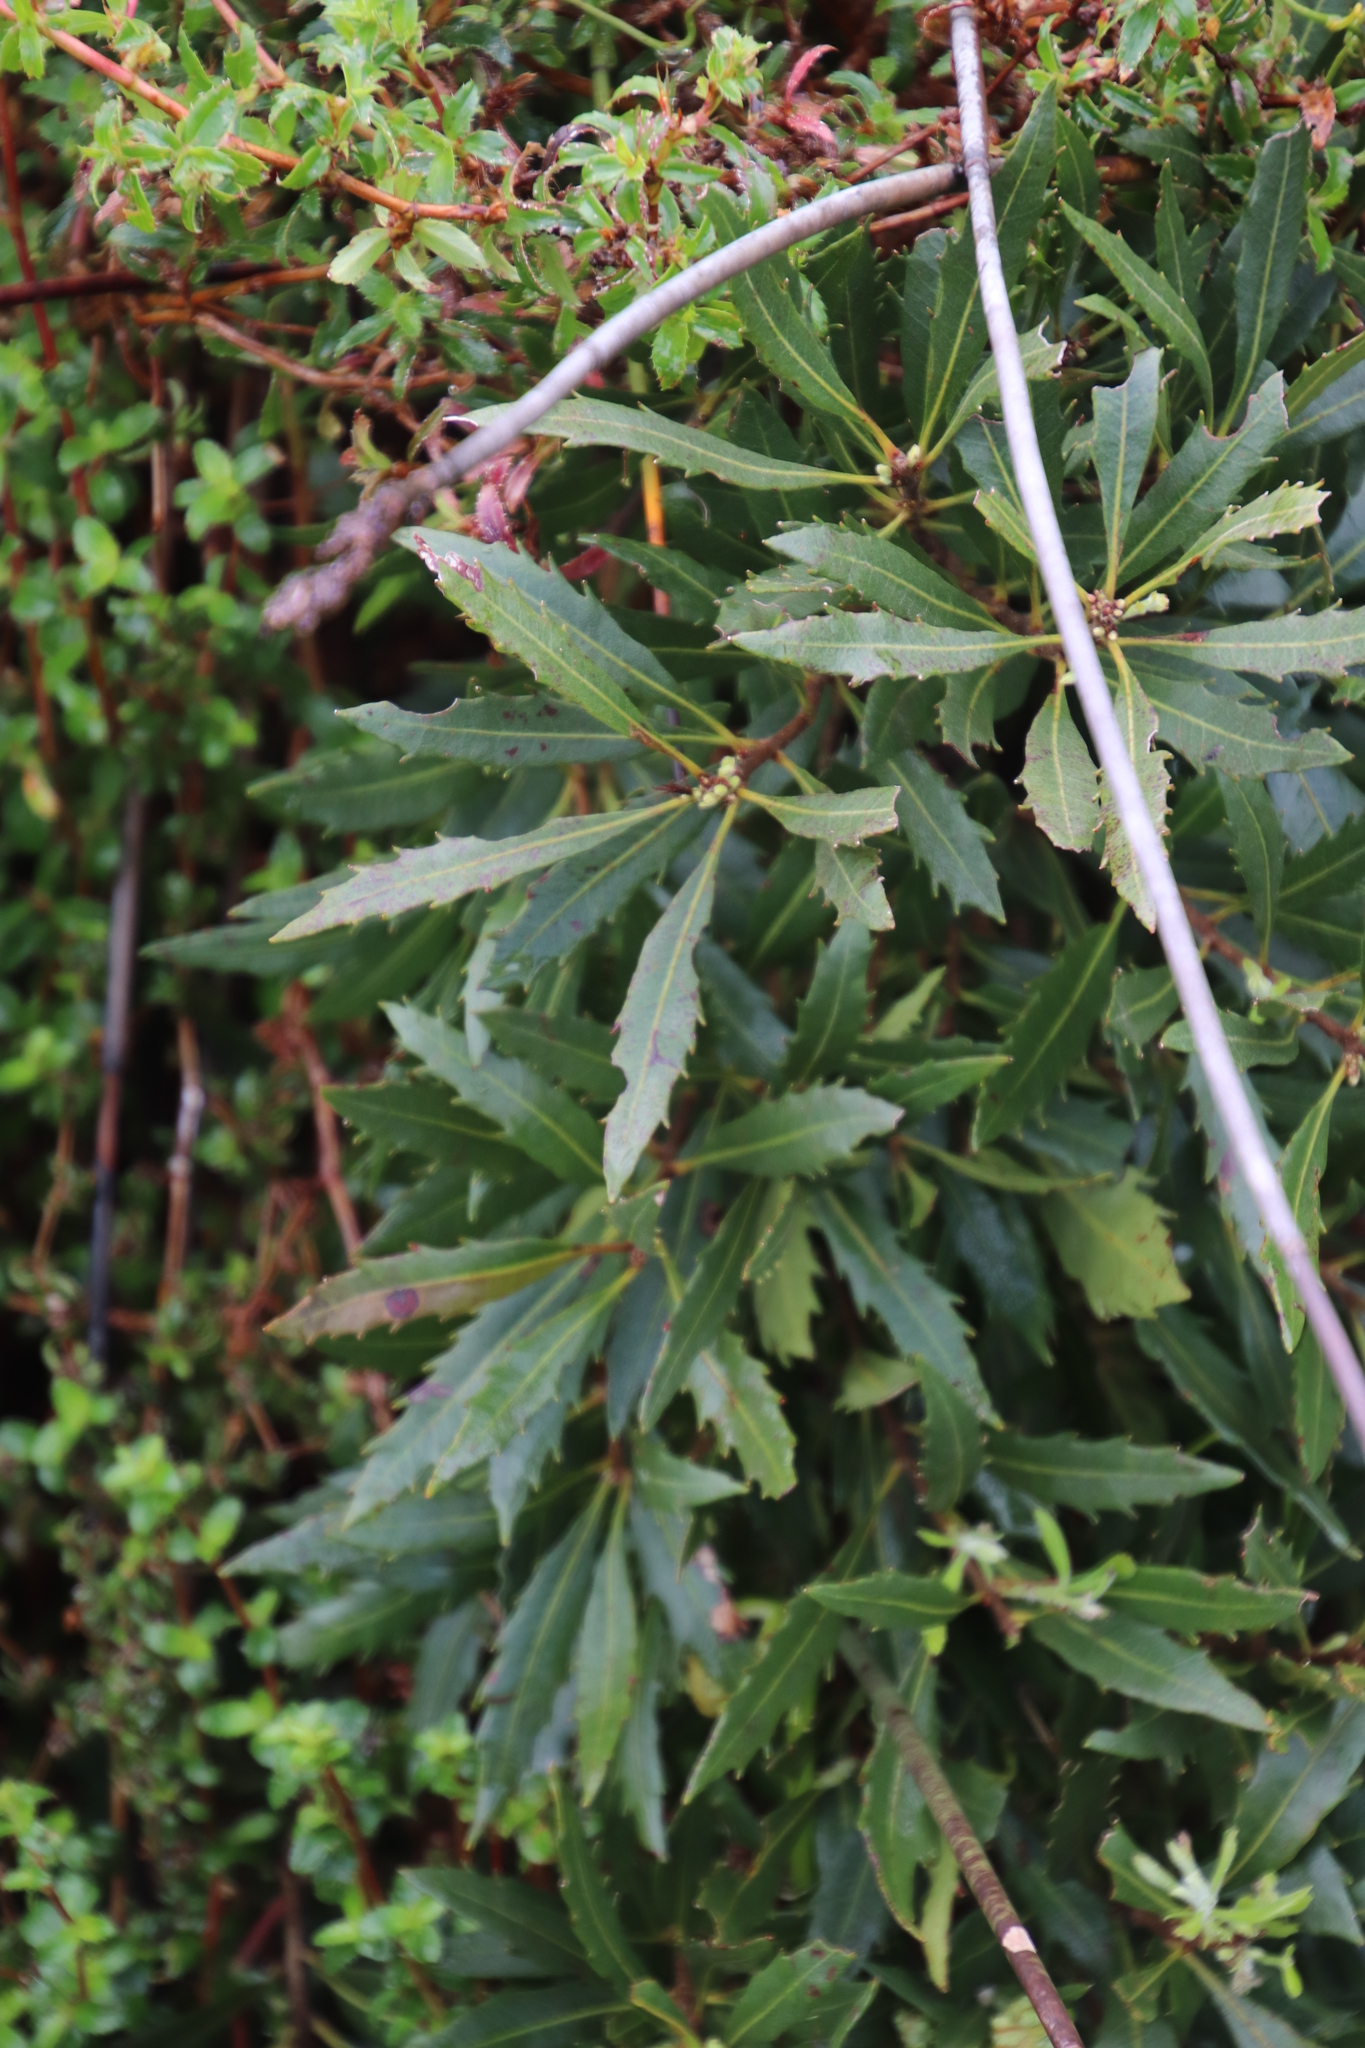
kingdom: Plantae
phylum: Tracheophyta
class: Magnoliopsida
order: Asterales
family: Asteraceae
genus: Brachylaena
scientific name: Brachylaena neriifolia
